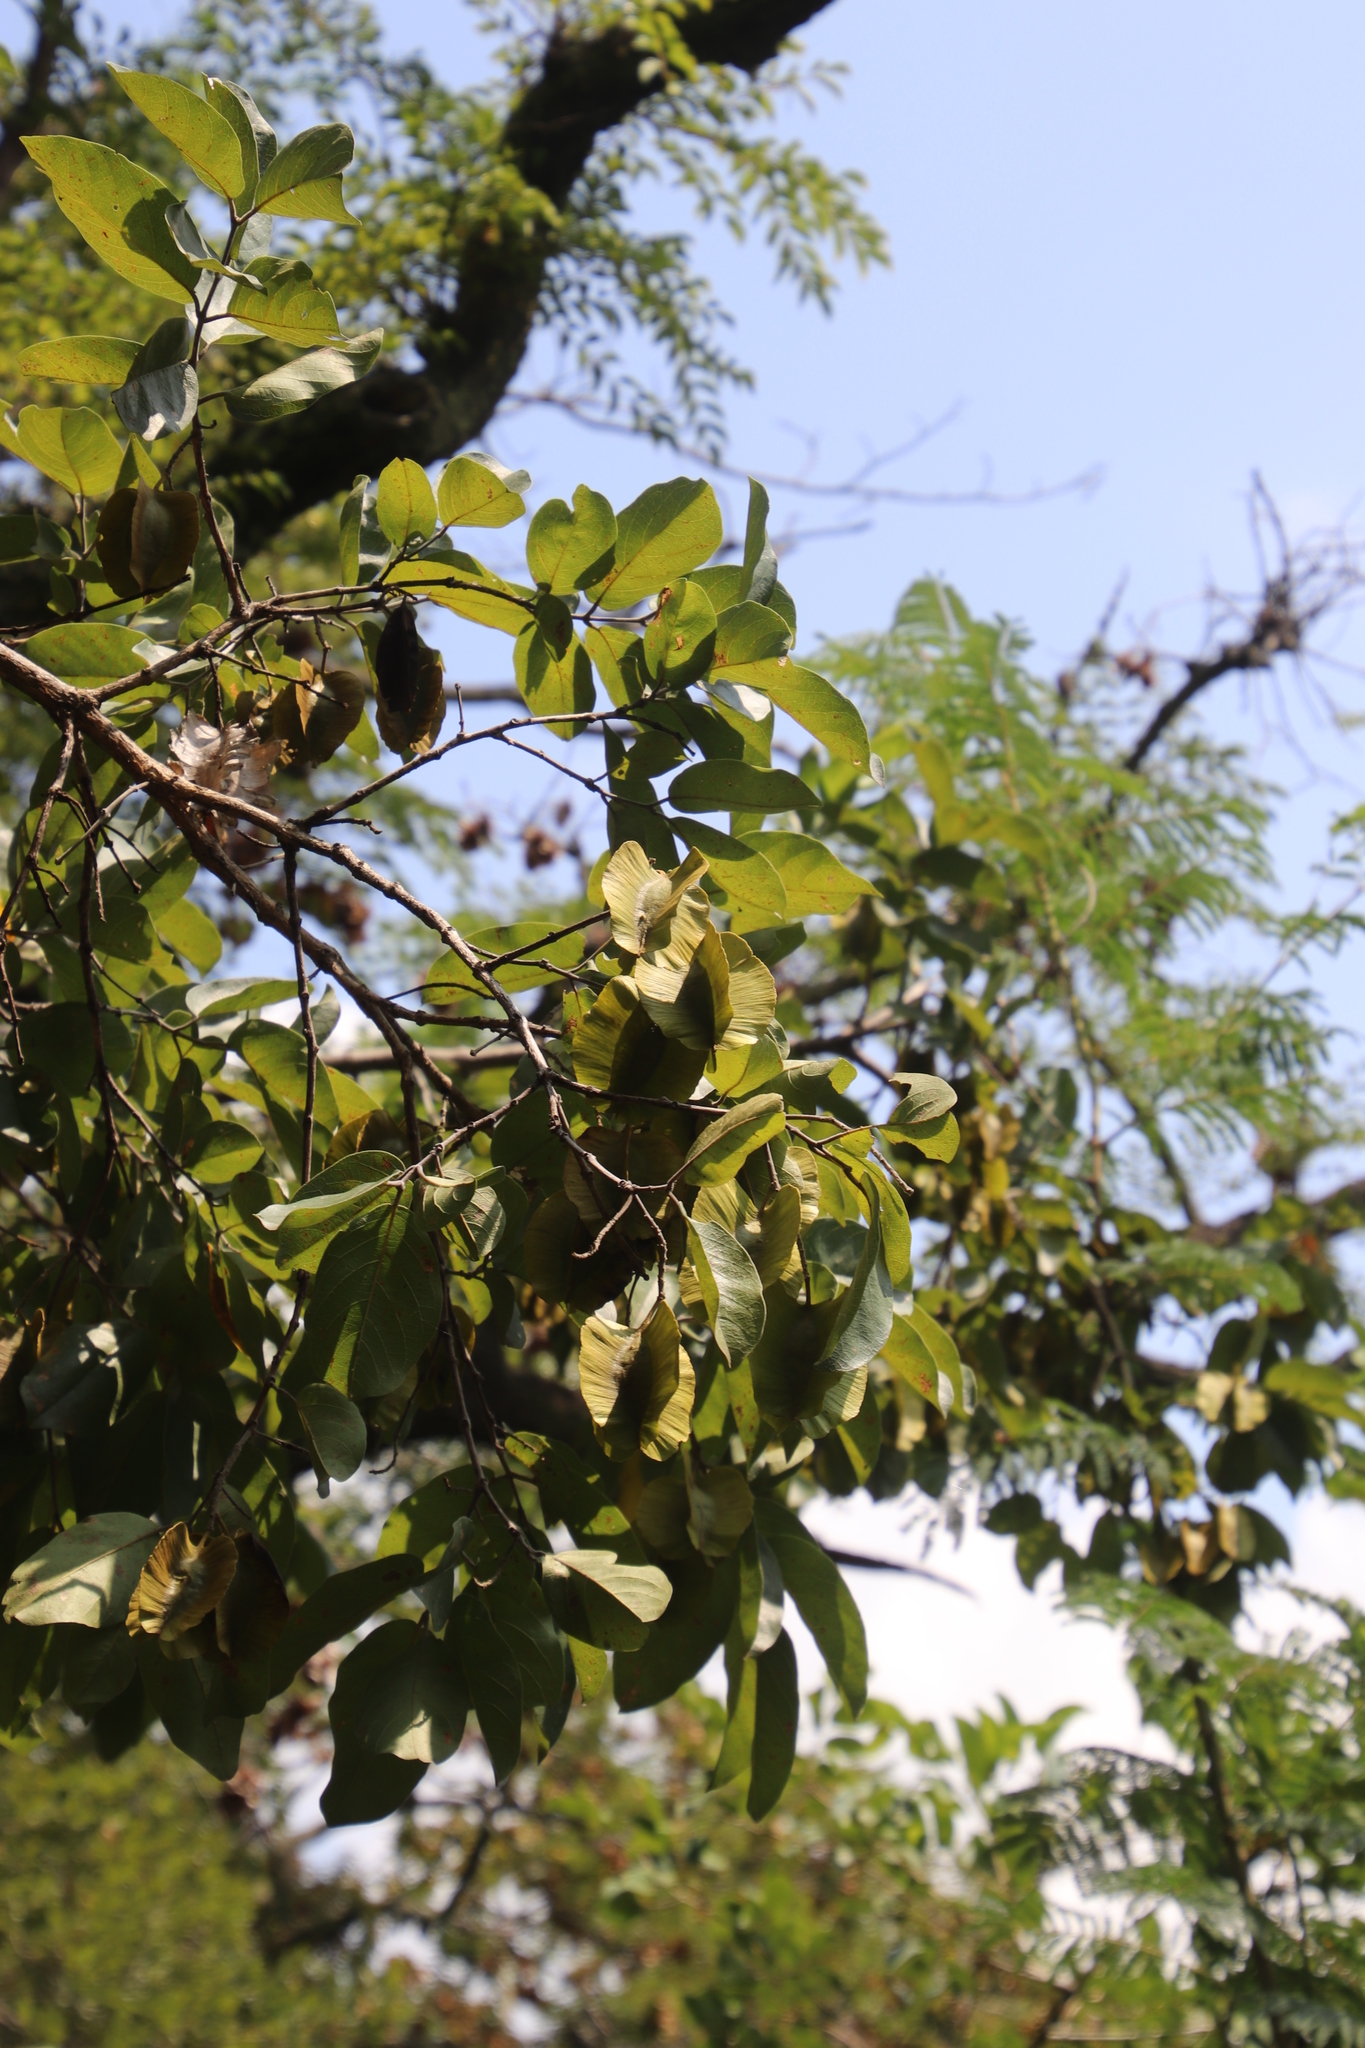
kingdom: Plantae
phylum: Tracheophyta
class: Magnoliopsida
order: Myrtales
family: Combretaceae
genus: Combretum
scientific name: Combretum zeyheri
